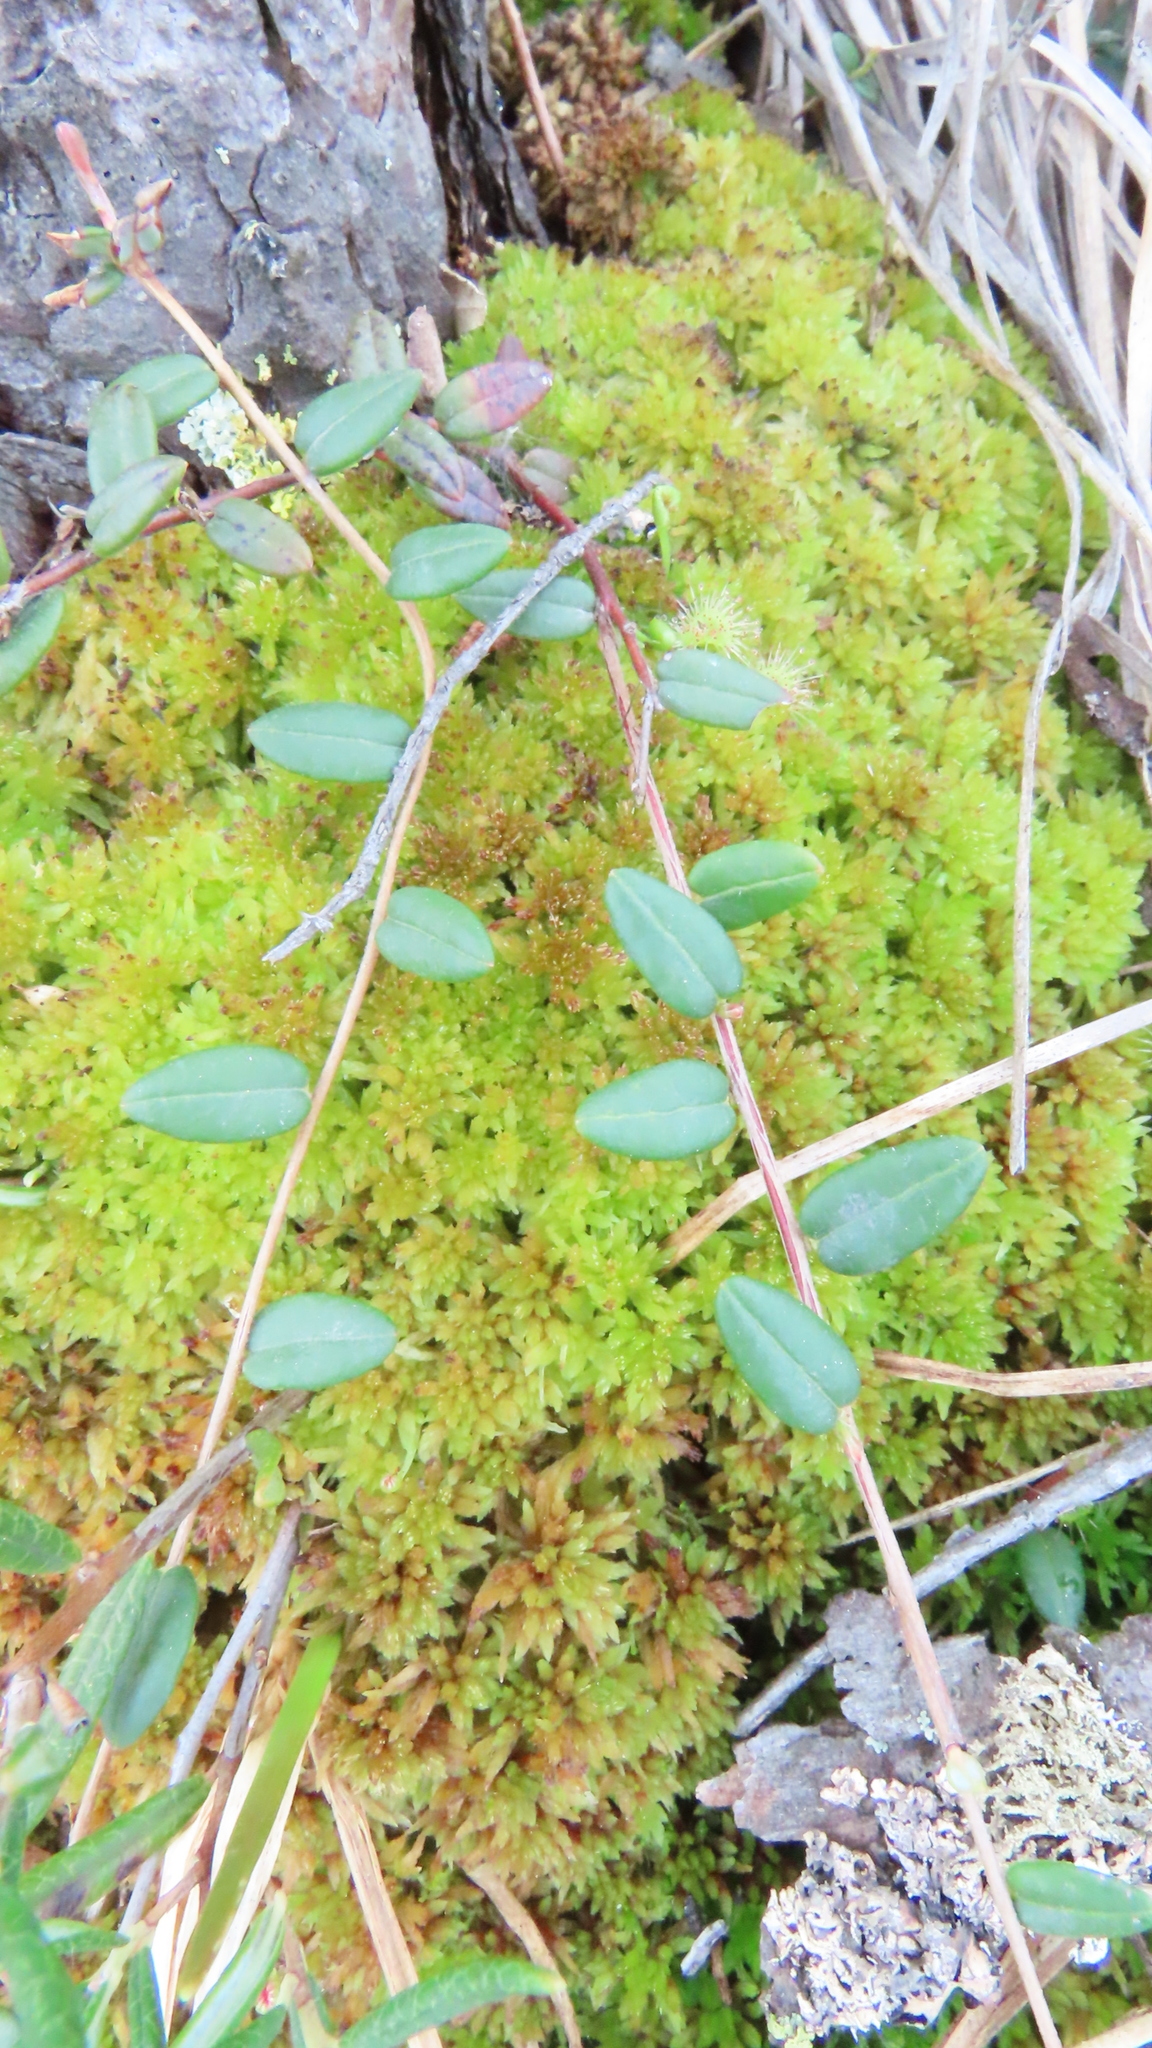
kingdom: Plantae
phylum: Tracheophyta
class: Magnoliopsida
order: Ericales
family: Ericaceae
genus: Vaccinium
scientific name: Vaccinium oxycoccos
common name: Cranberry
